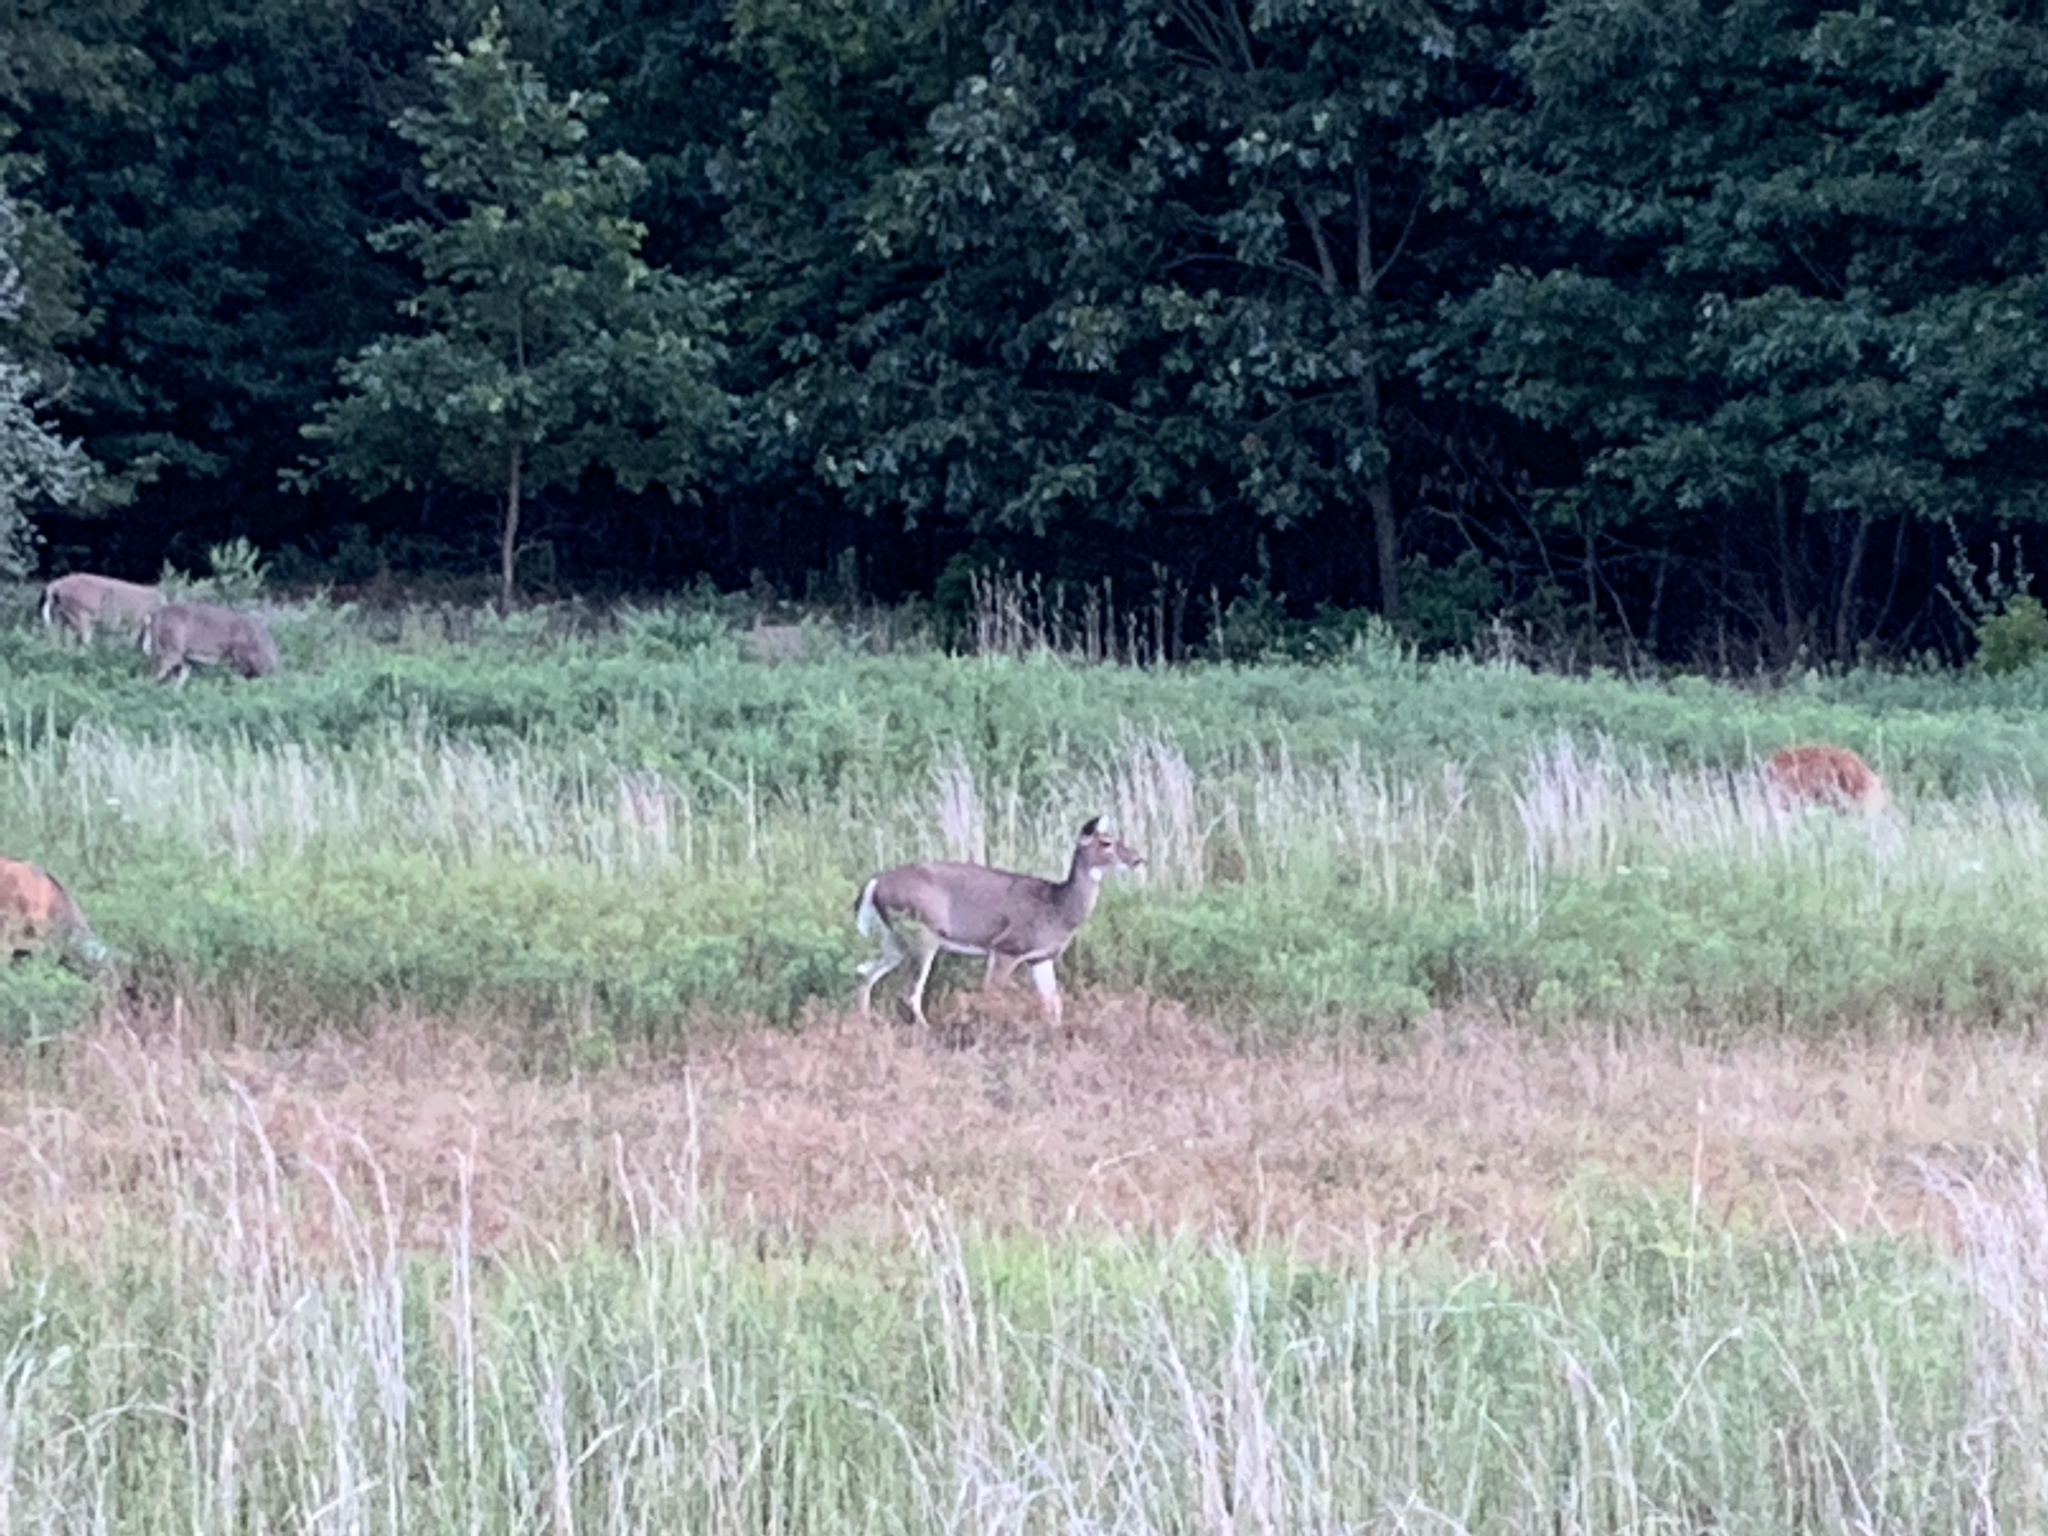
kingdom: Animalia
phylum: Chordata
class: Mammalia
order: Artiodactyla
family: Cervidae
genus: Odocoileus
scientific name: Odocoileus virginianus
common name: White-tailed deer
